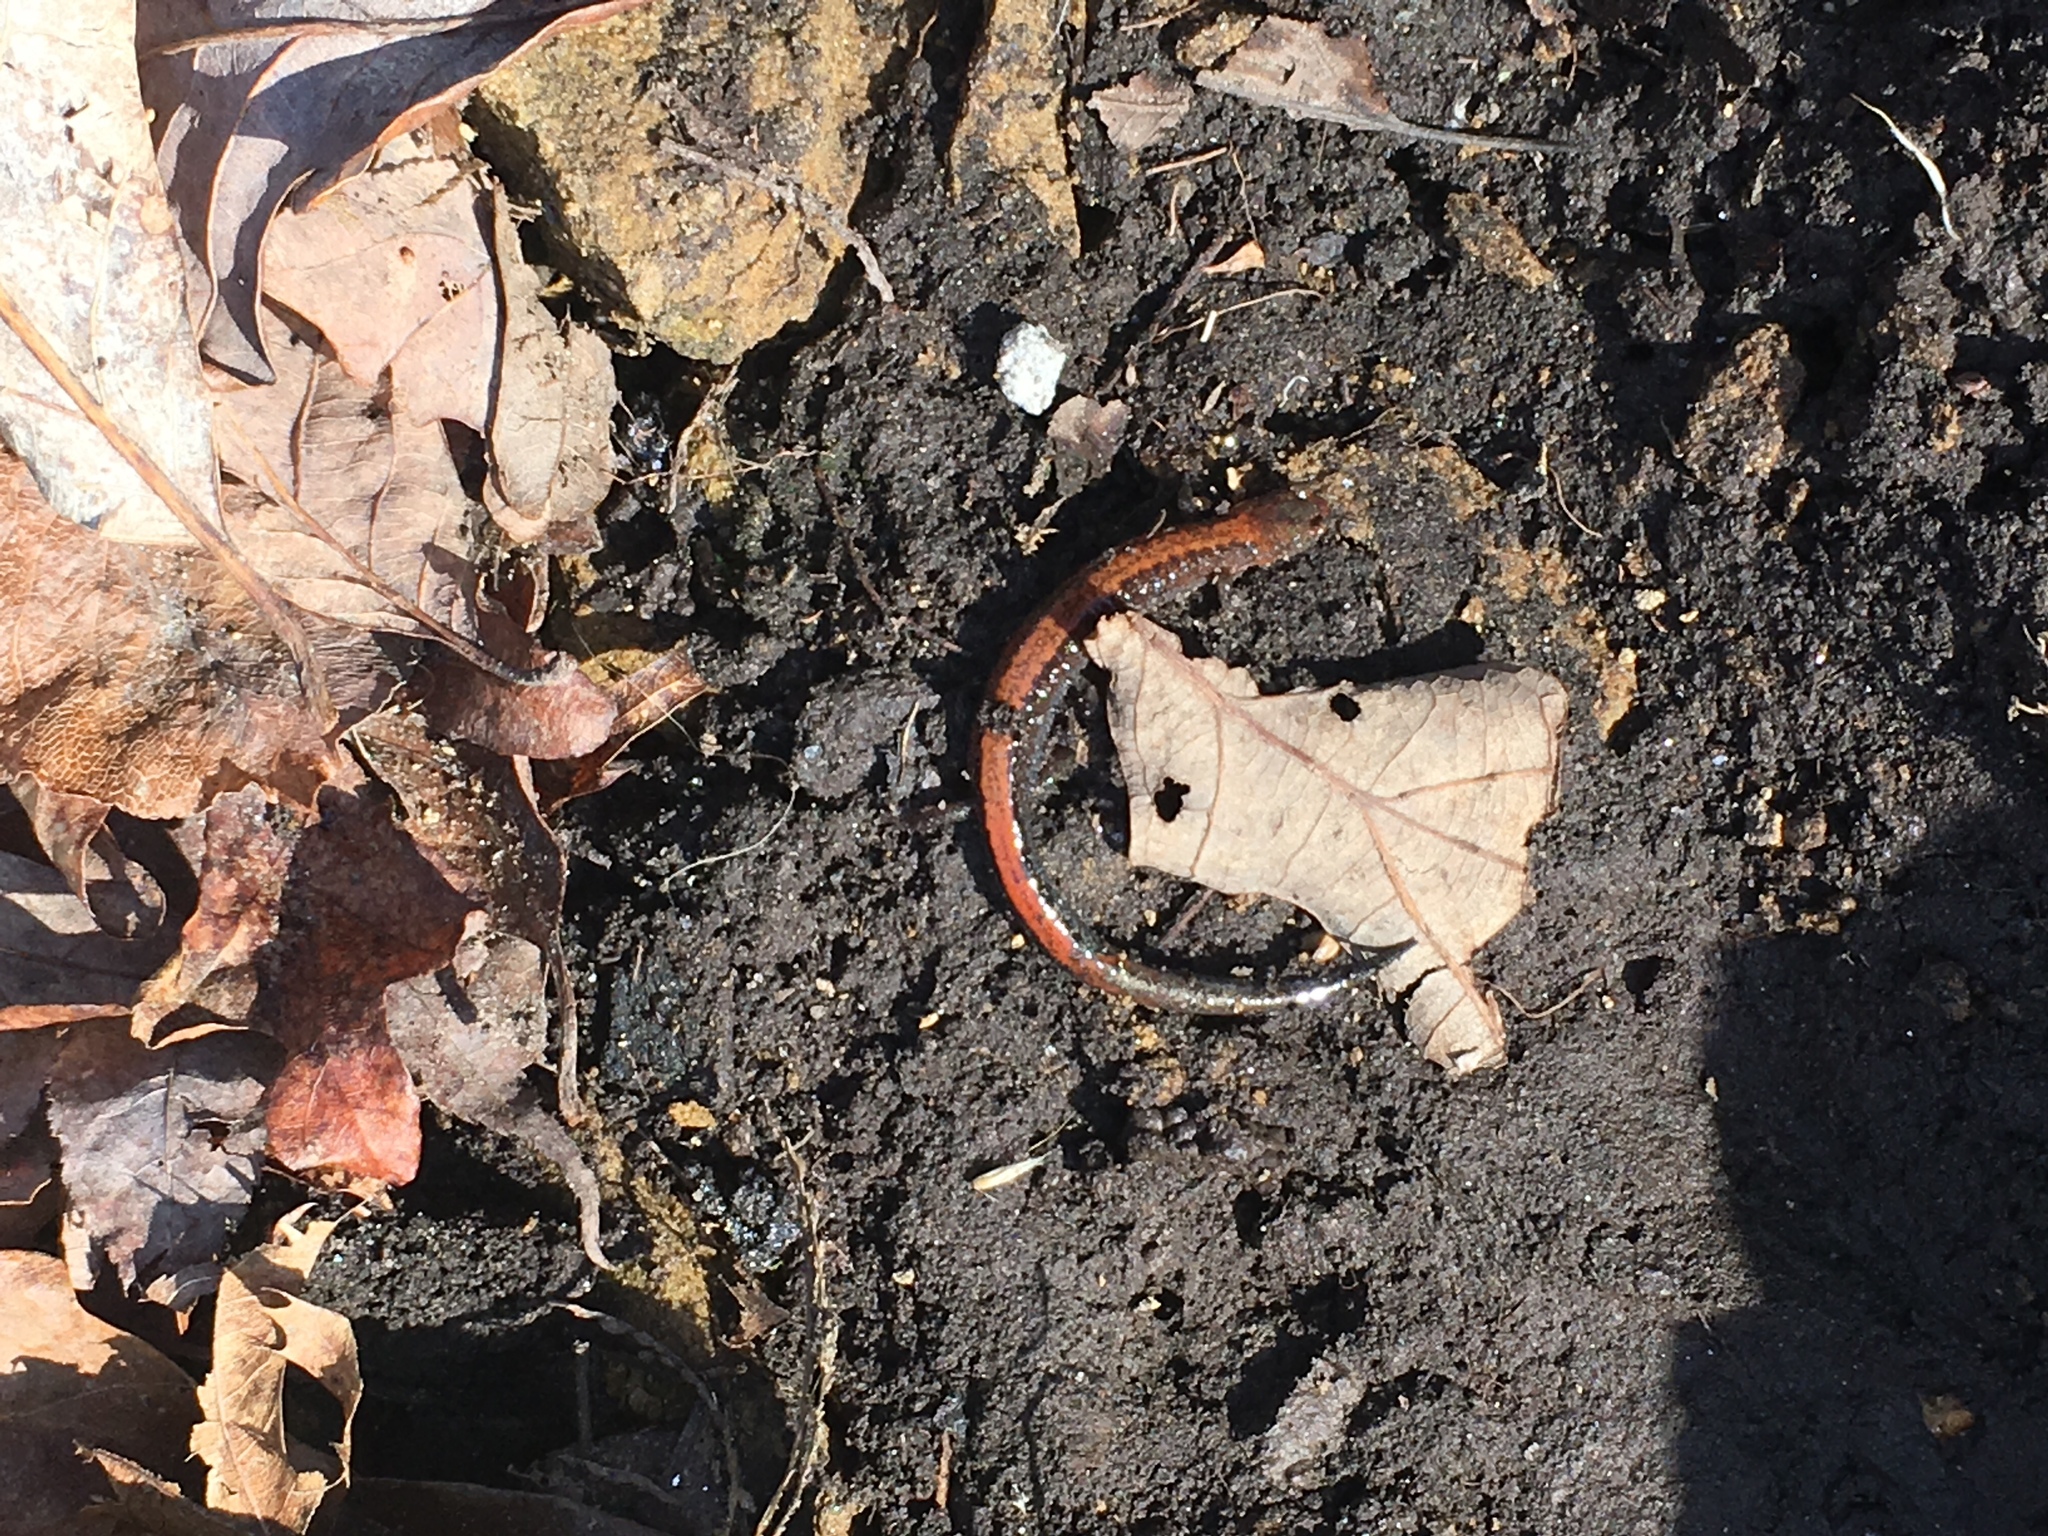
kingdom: Animalia
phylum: Chordata
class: Amphibia
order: Caudata
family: Plethodontidae
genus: Plethodon
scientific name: Plethodon cinereus
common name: Redback salamander
